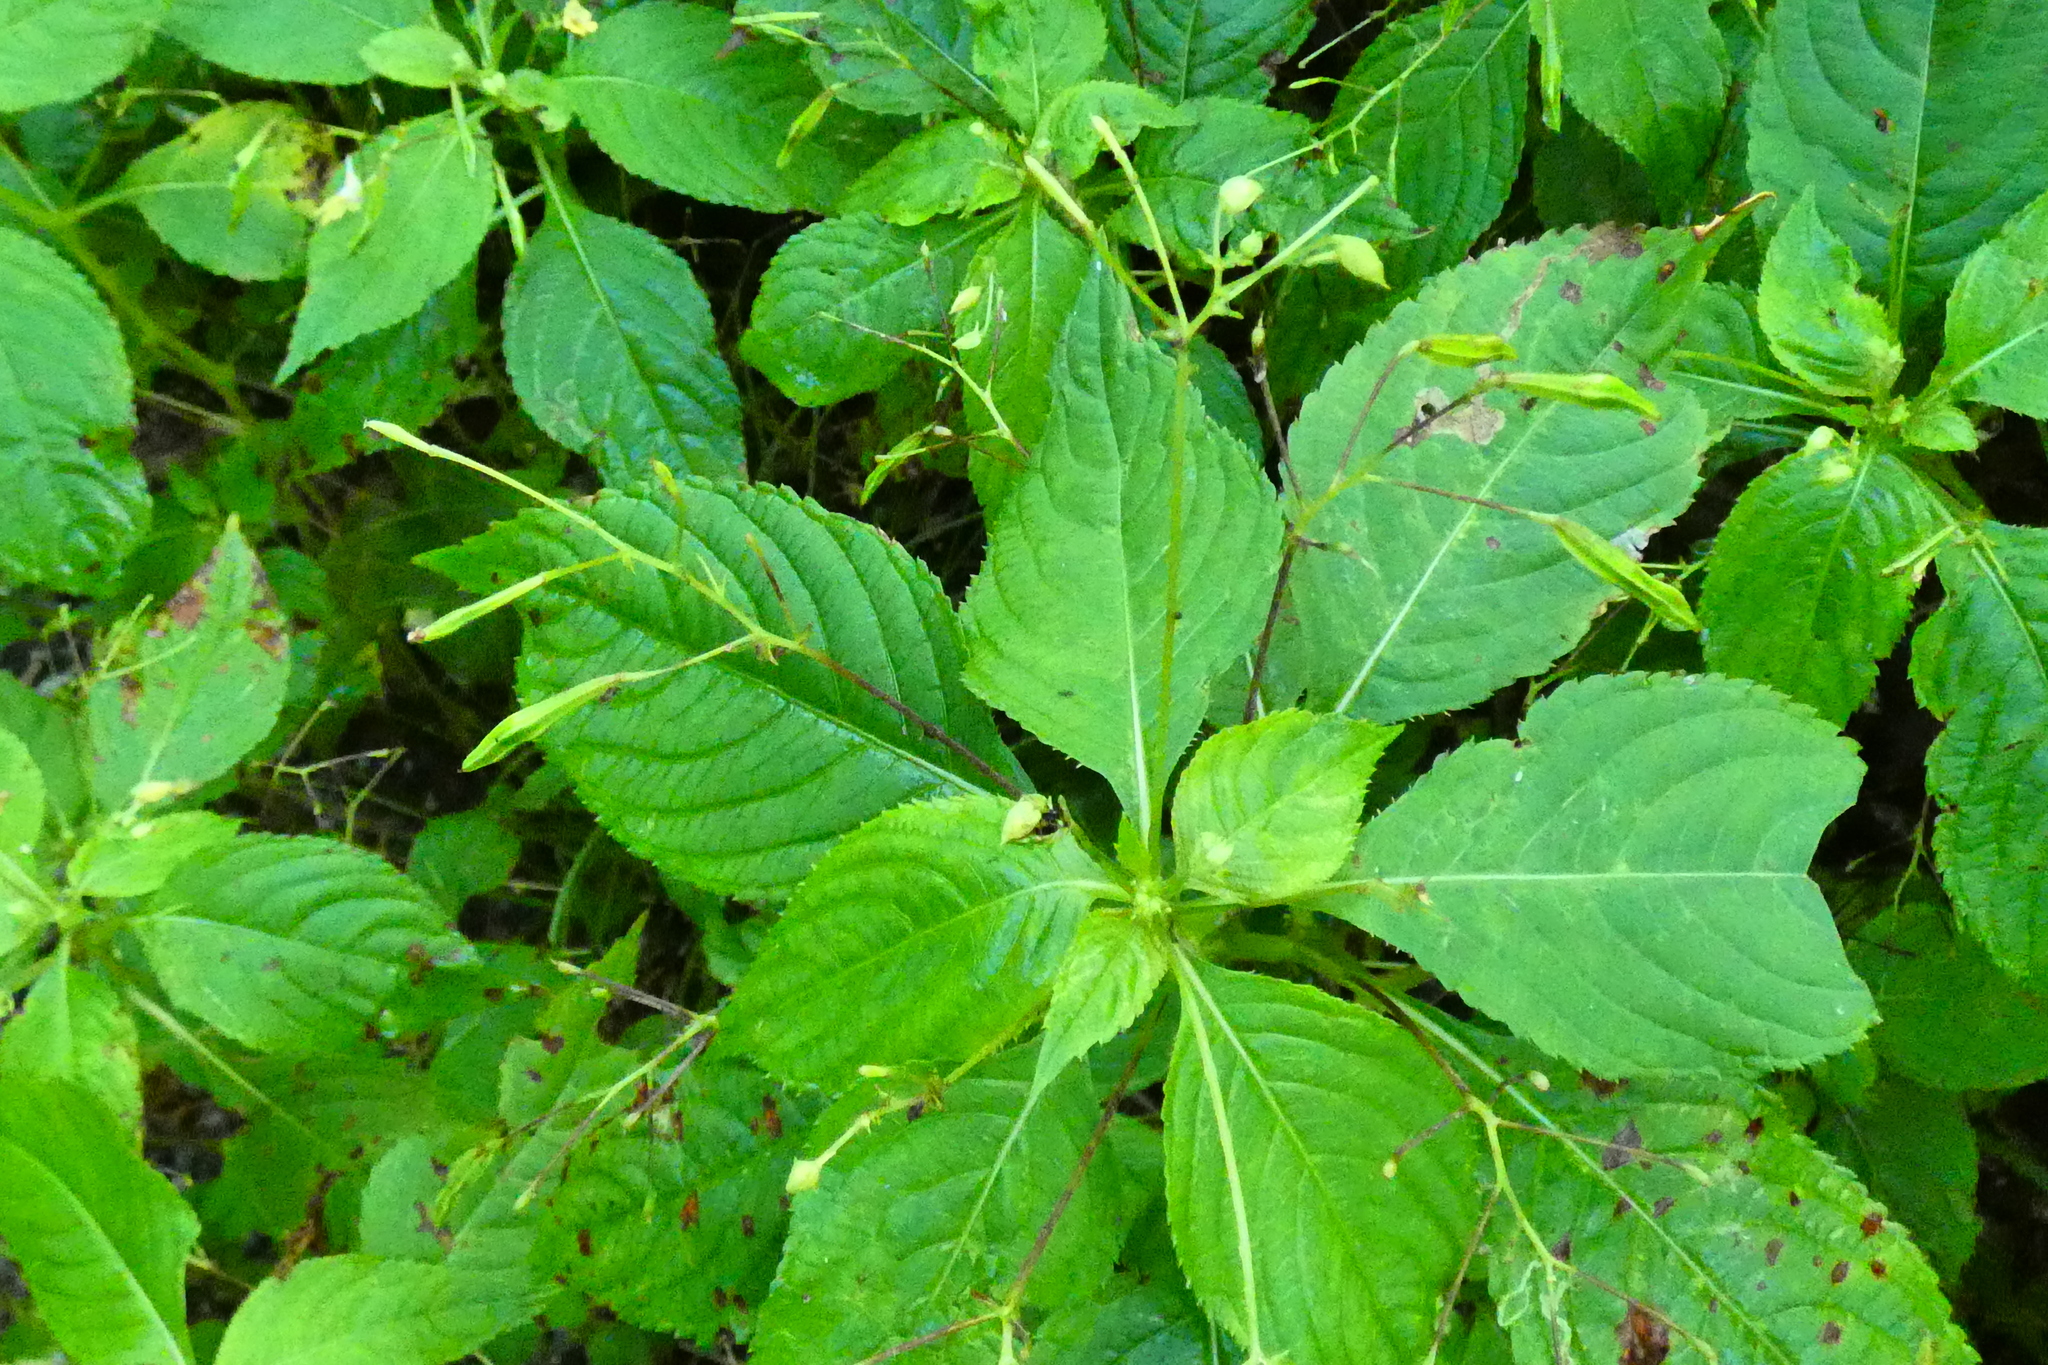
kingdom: Plantae
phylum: Tracheophyta
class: Magnoliopsida
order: Ericales
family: Balsaminaceae
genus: Impatiens
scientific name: Impatiens parviflora
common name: Small balsam
